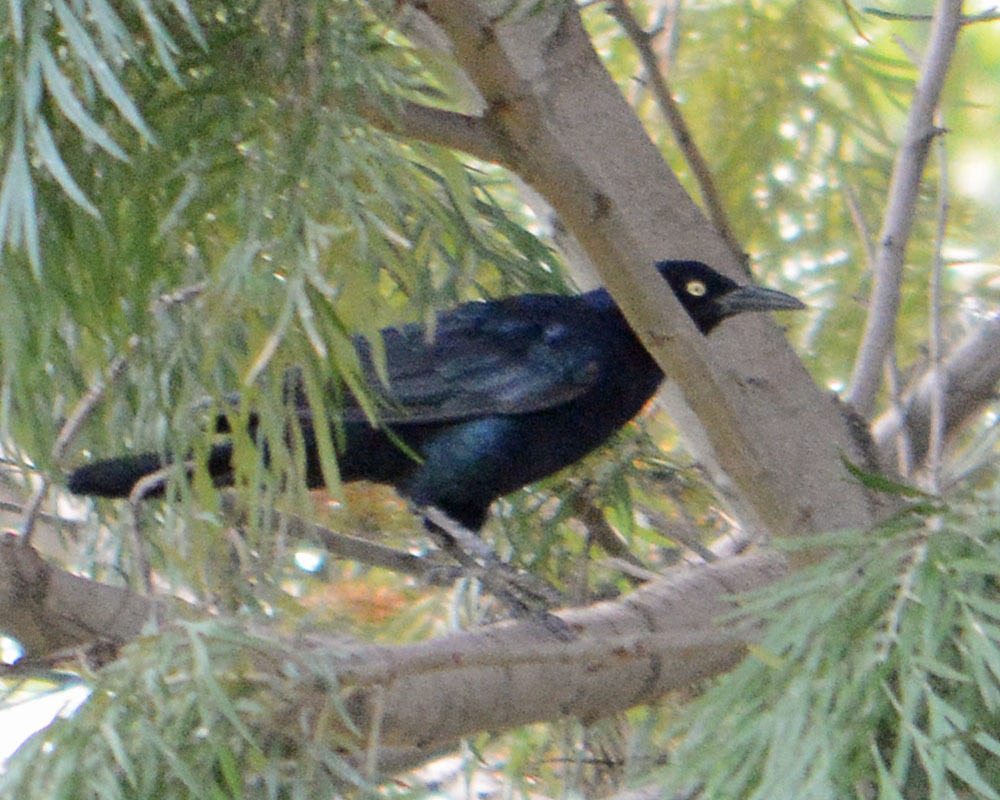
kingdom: Animalia
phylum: Chordata
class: Aves
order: Passeriformes
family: Icteridae
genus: Quiscalus
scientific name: Quiscalus mexicanus
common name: Great-tailed grackle
